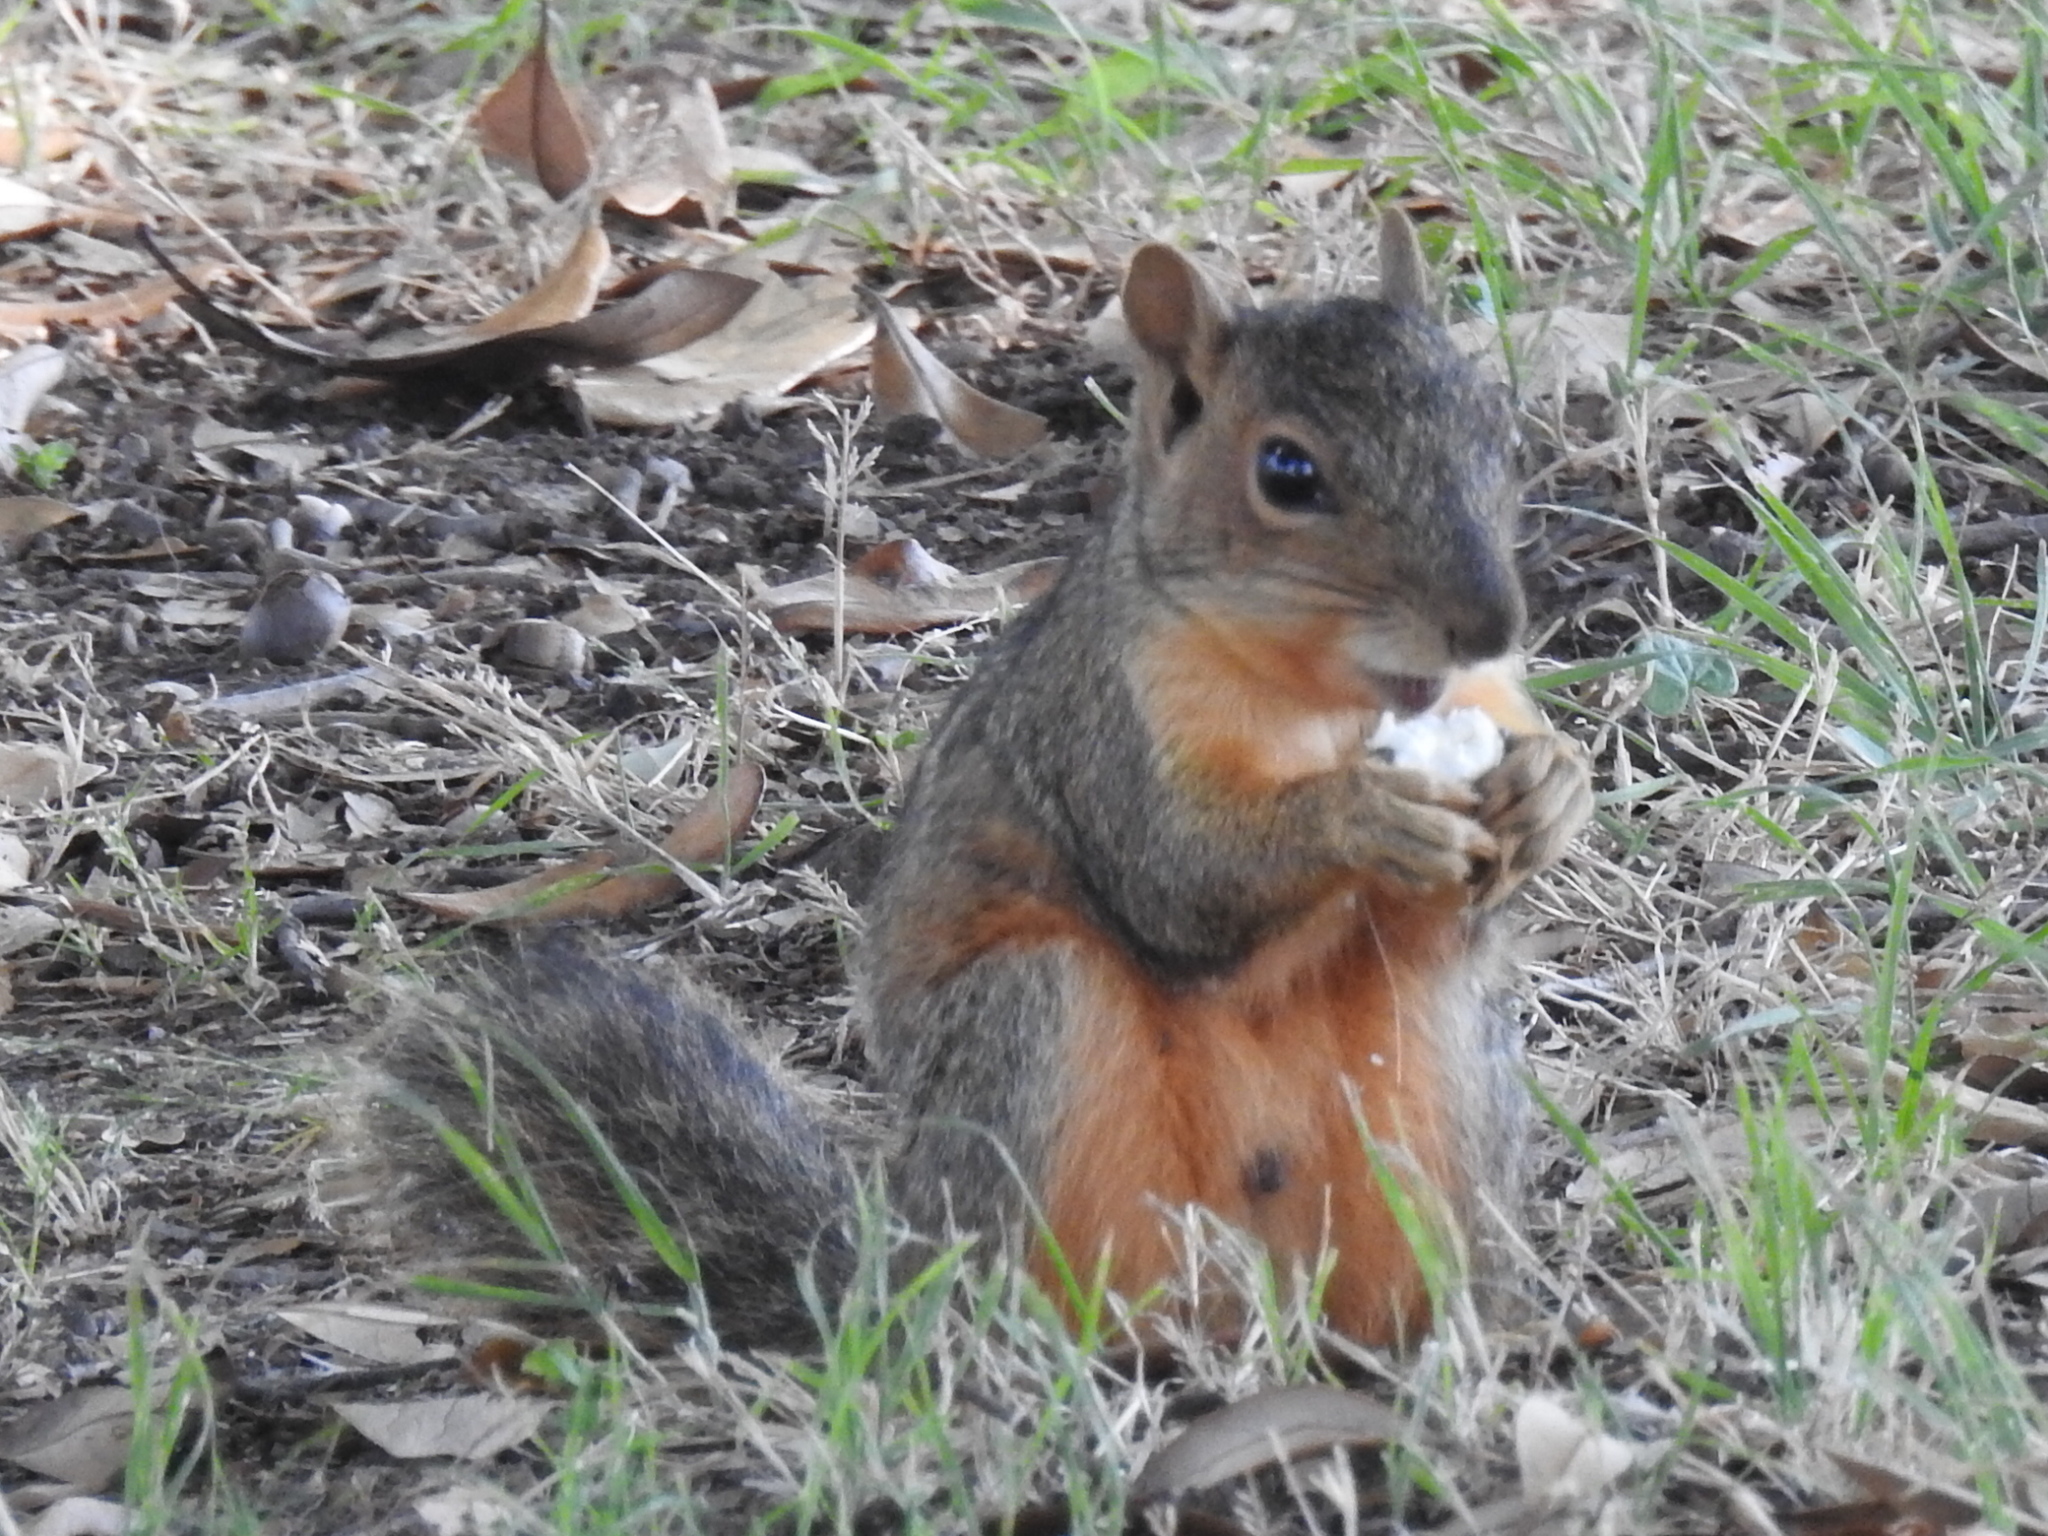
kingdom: Animalia
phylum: Chordata
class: Mammalia
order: Rodentia
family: Sciuridae
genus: Sciurus
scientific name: Sciurus niger
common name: Fox squirrel
